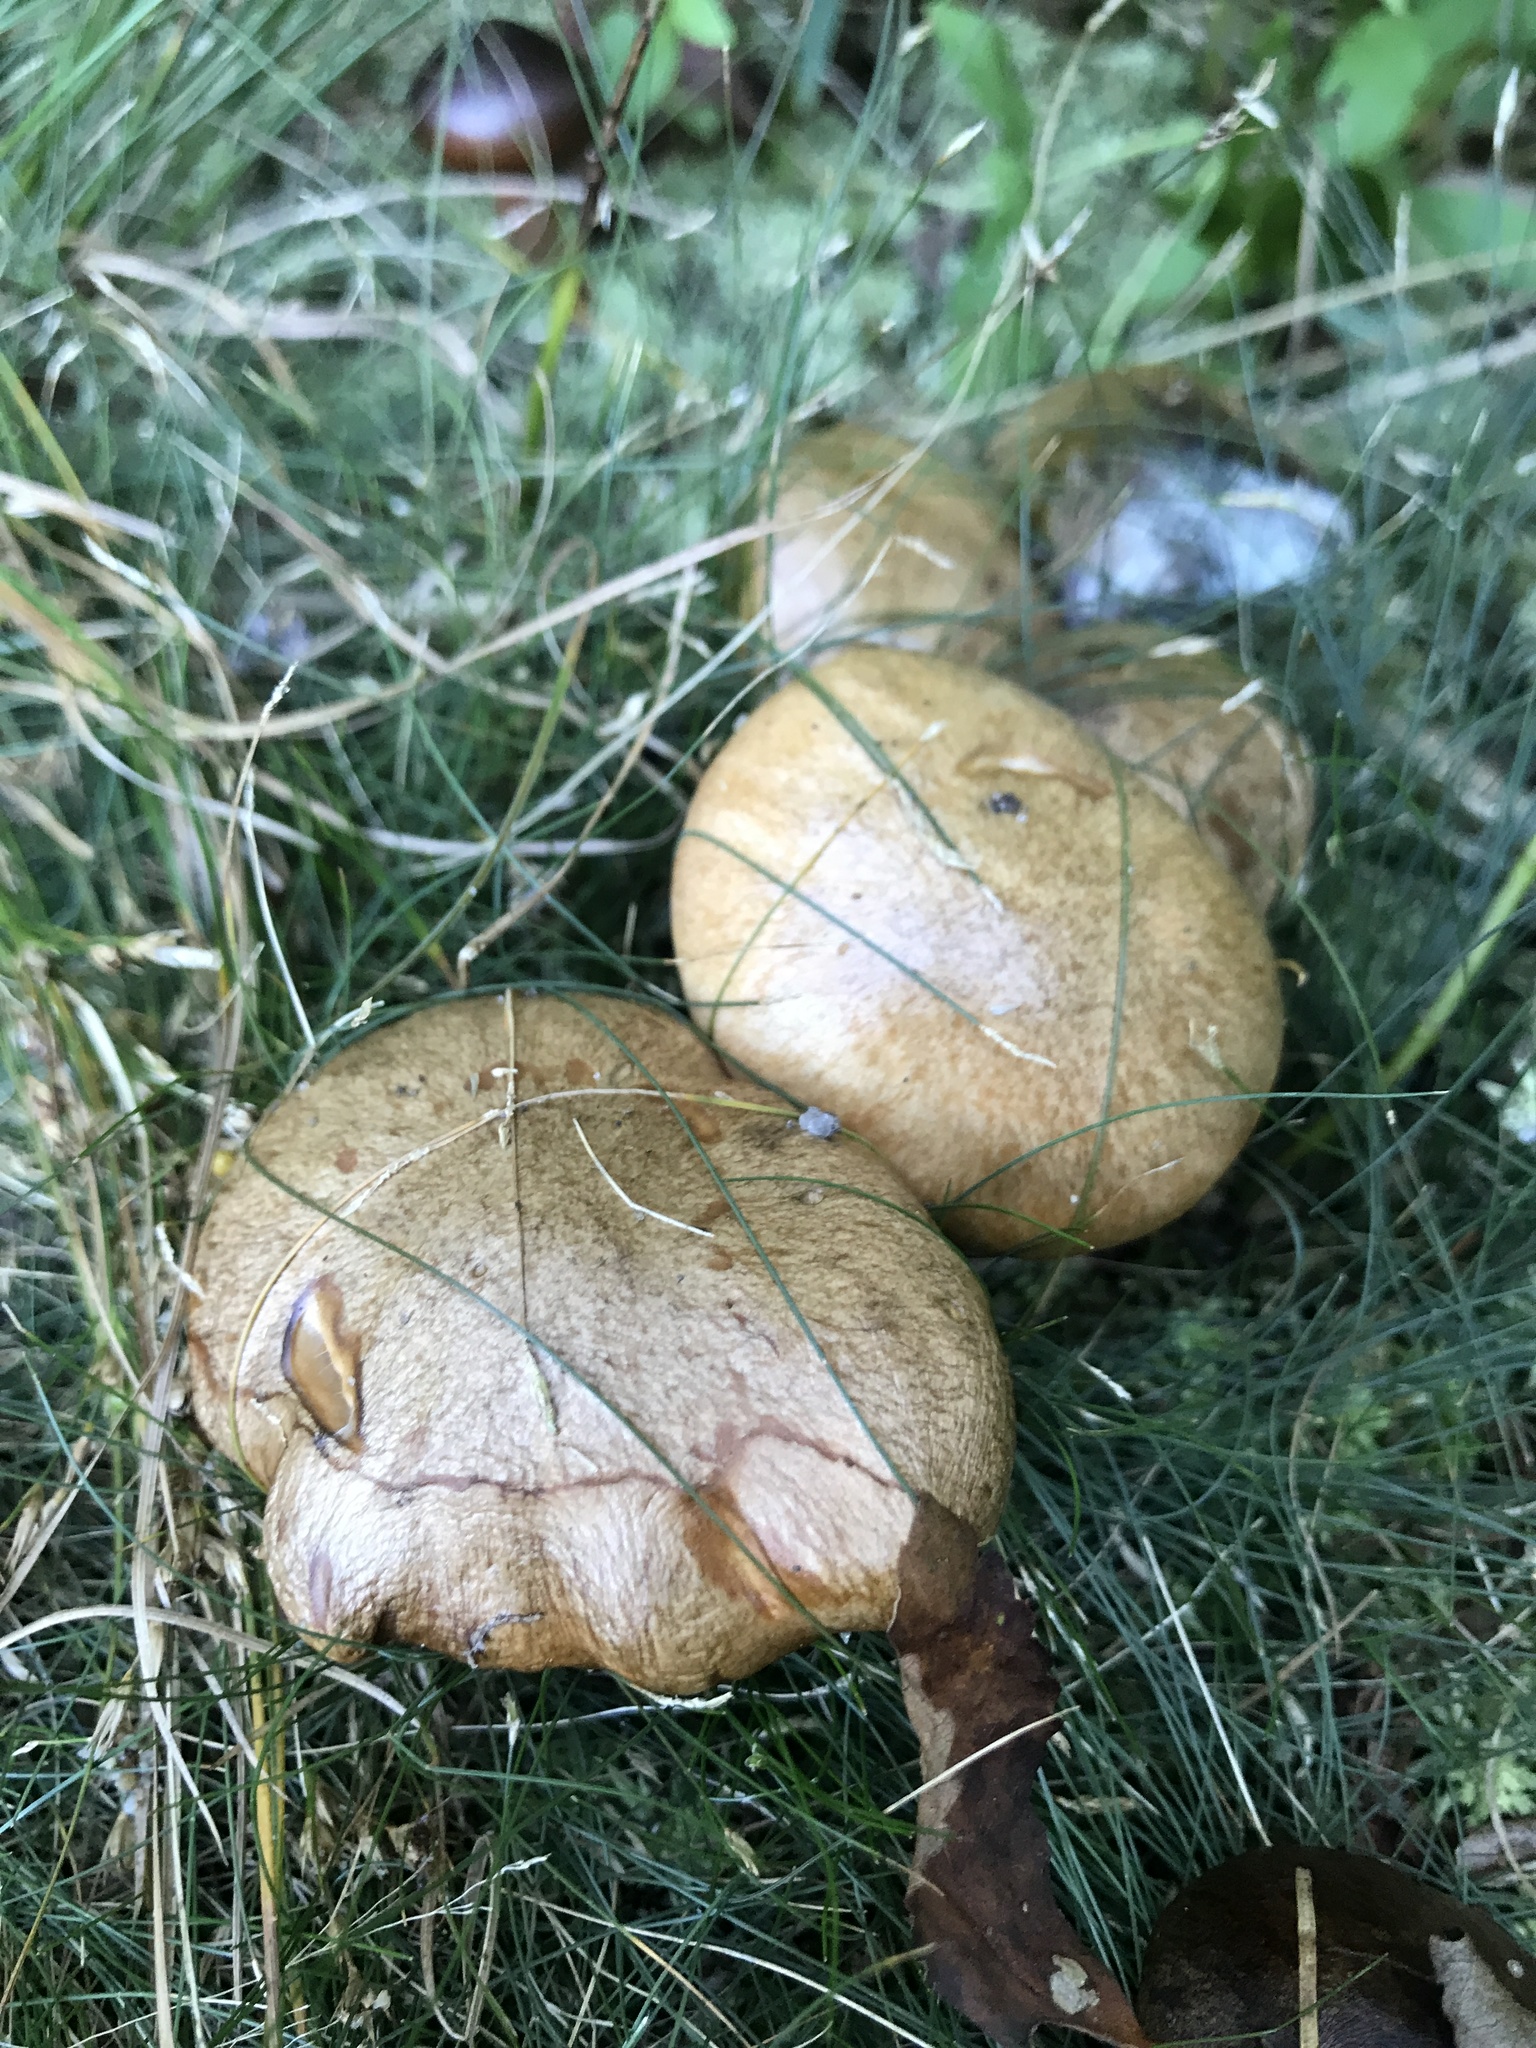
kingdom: Fungi
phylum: Basidiomycota
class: Agaricomycetes
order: Boletales
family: Suillaceae
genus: Suillus
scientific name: Suillus salmonicolor
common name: Slippery jill
